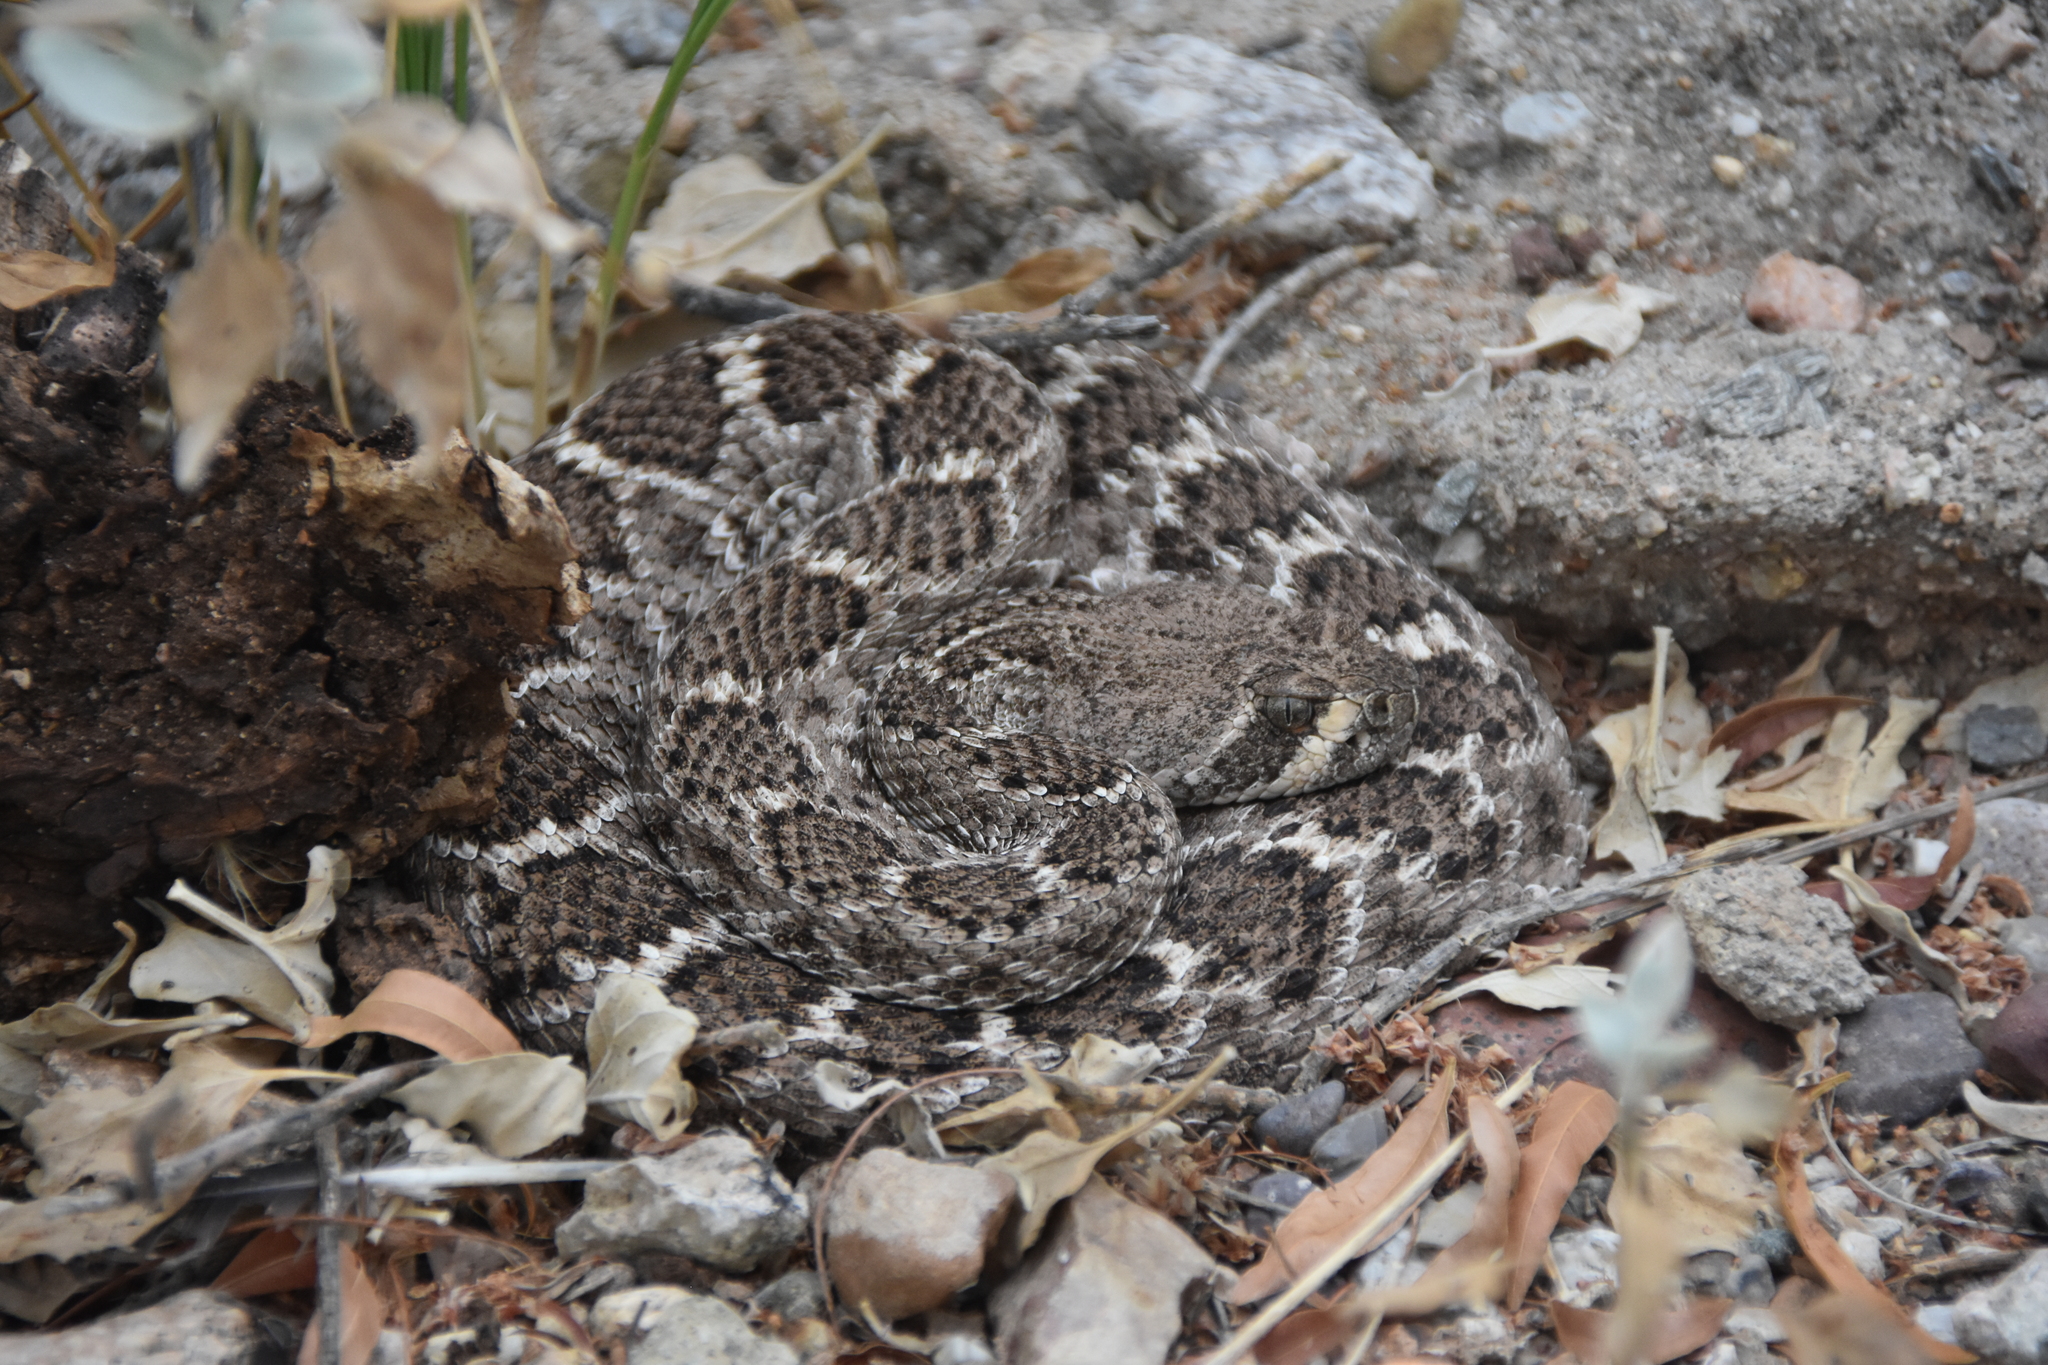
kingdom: Animalia
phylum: Chordata
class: Squamata
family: Viperidae
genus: Crotalus
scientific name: Crotalus atrox
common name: Western diamond-backed rattlesnake
